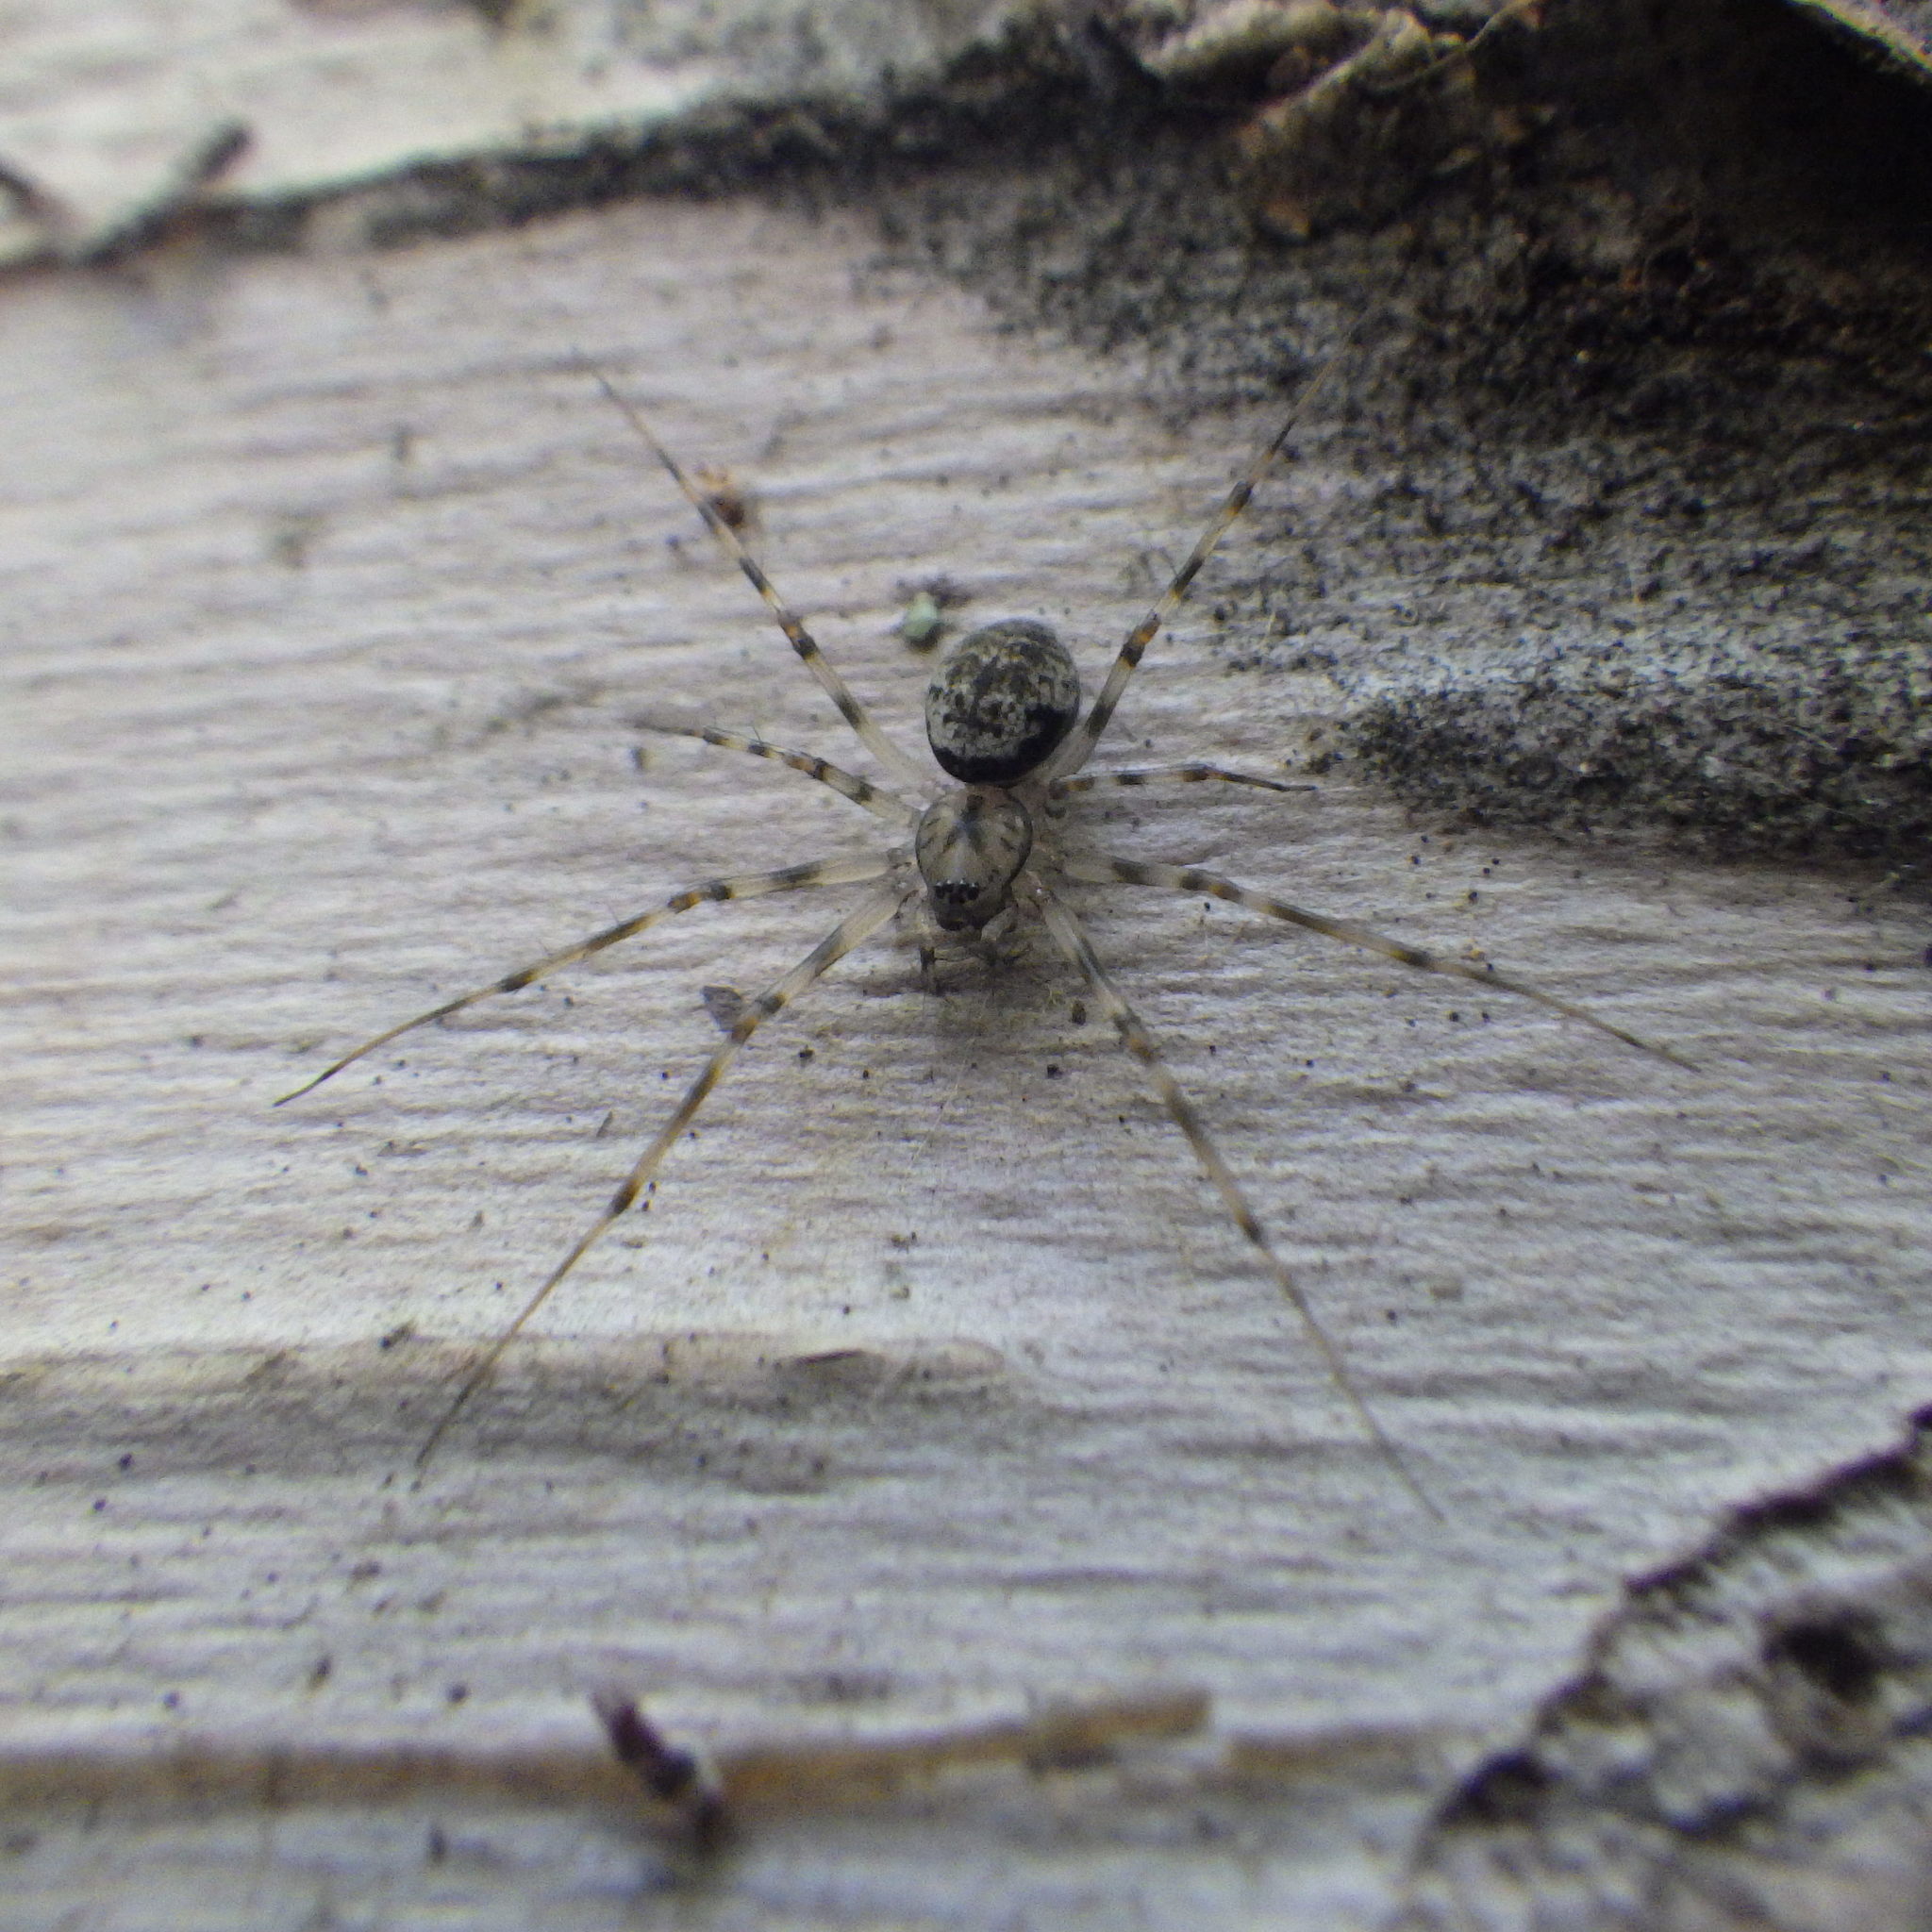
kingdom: Animalia
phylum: Arthropoda
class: Arachnida
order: Araneae
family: Linyphiidae
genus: Drapetisca
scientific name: Drapetisca alteranda
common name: Northern long-toothed sheetweaver
